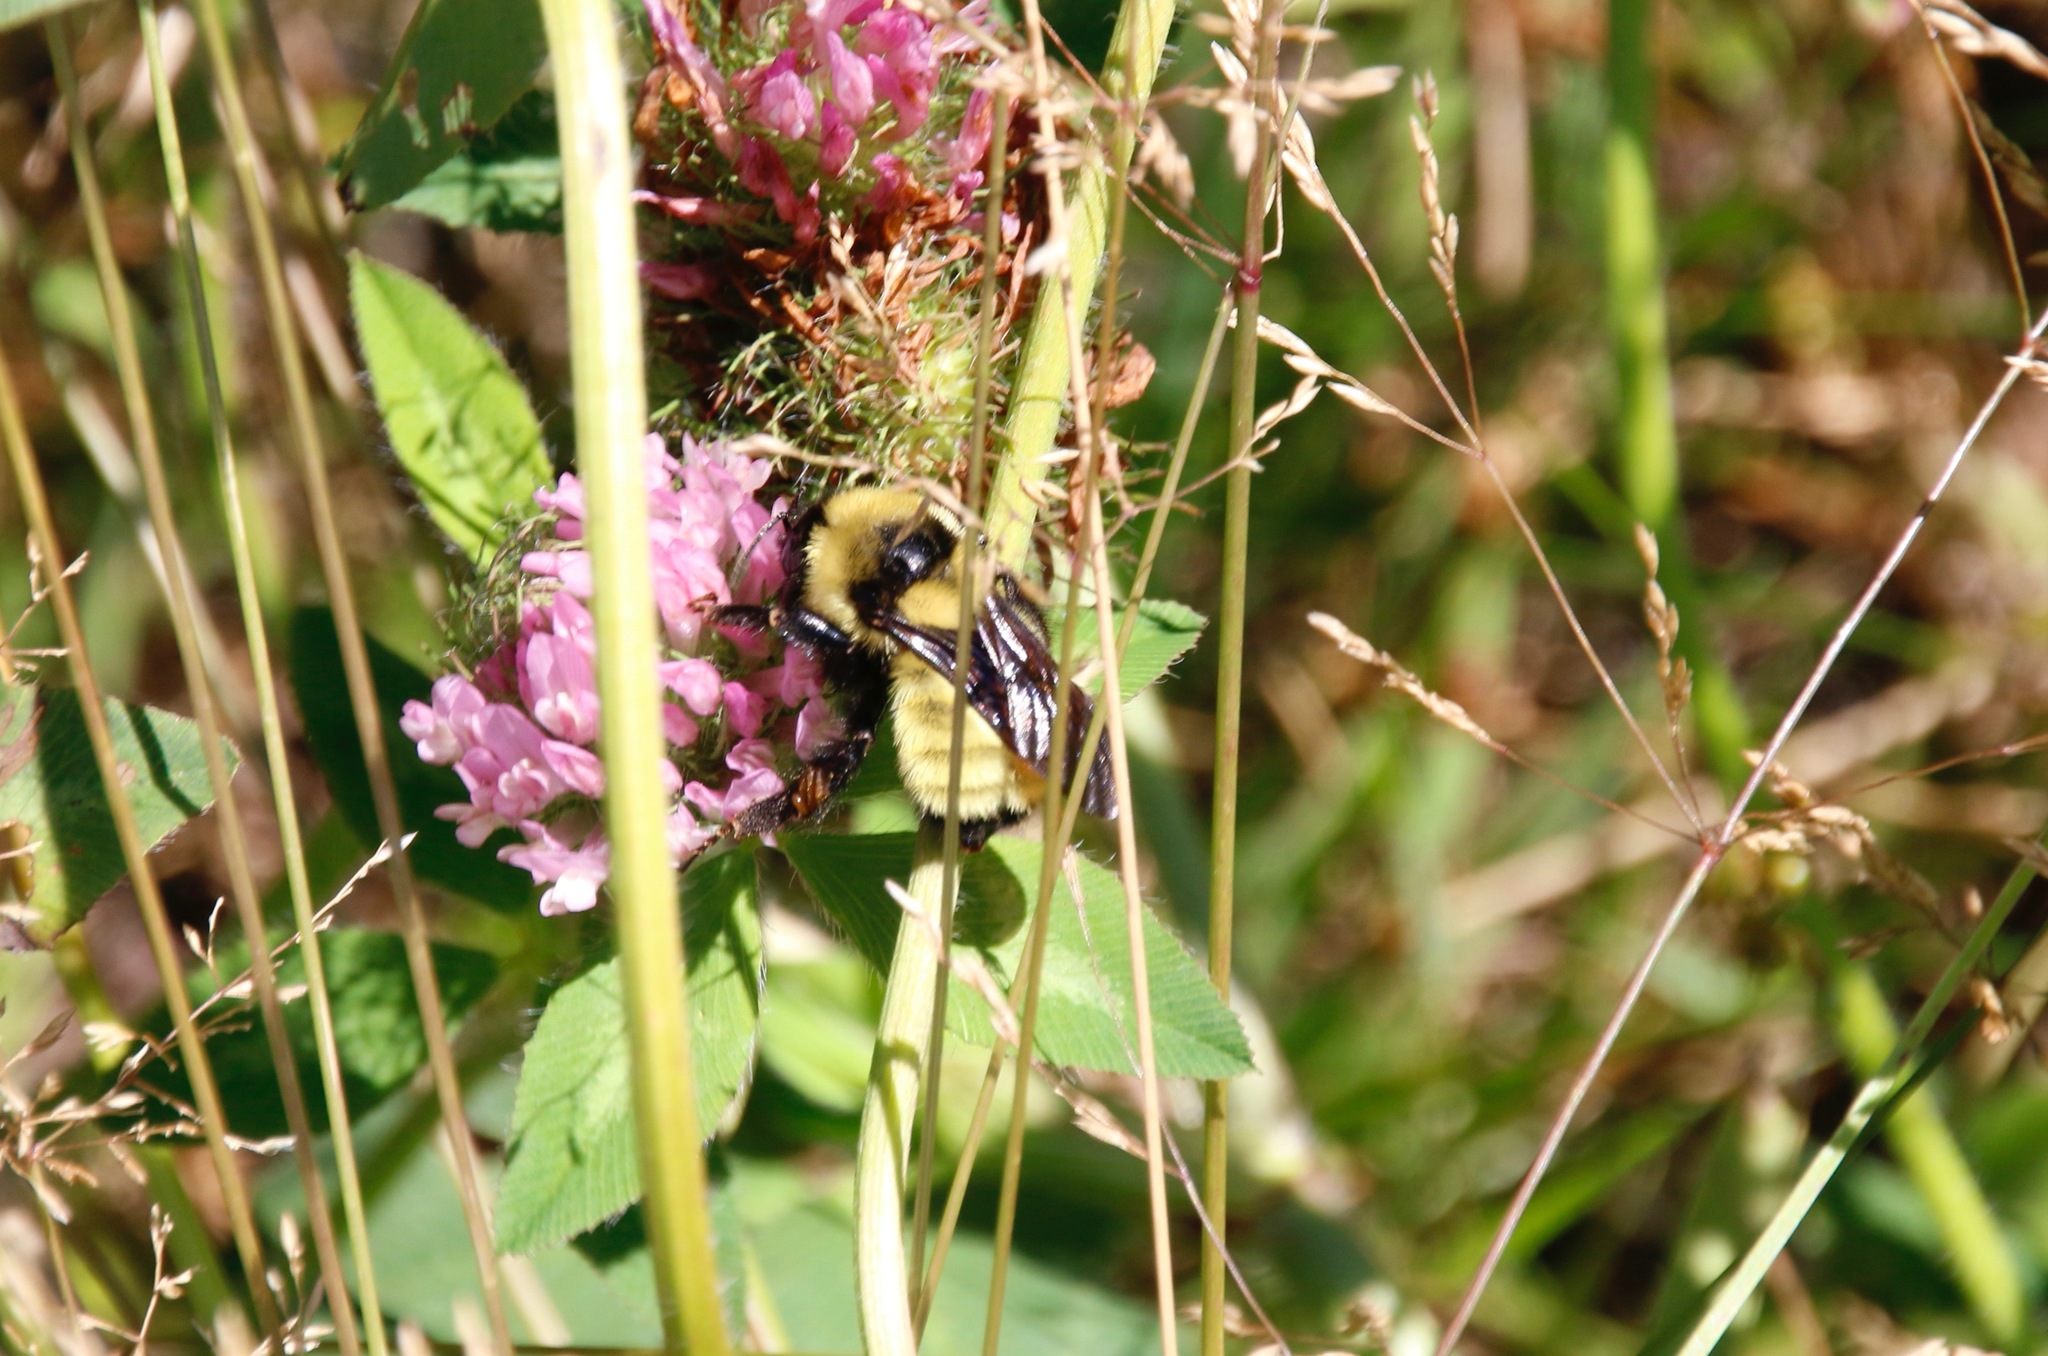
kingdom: Animalia
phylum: Arthropoda
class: Insecta
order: Hymenoptera
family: Apidae
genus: Bombus
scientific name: Bombus fervidus
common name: Yellow bumble bee
